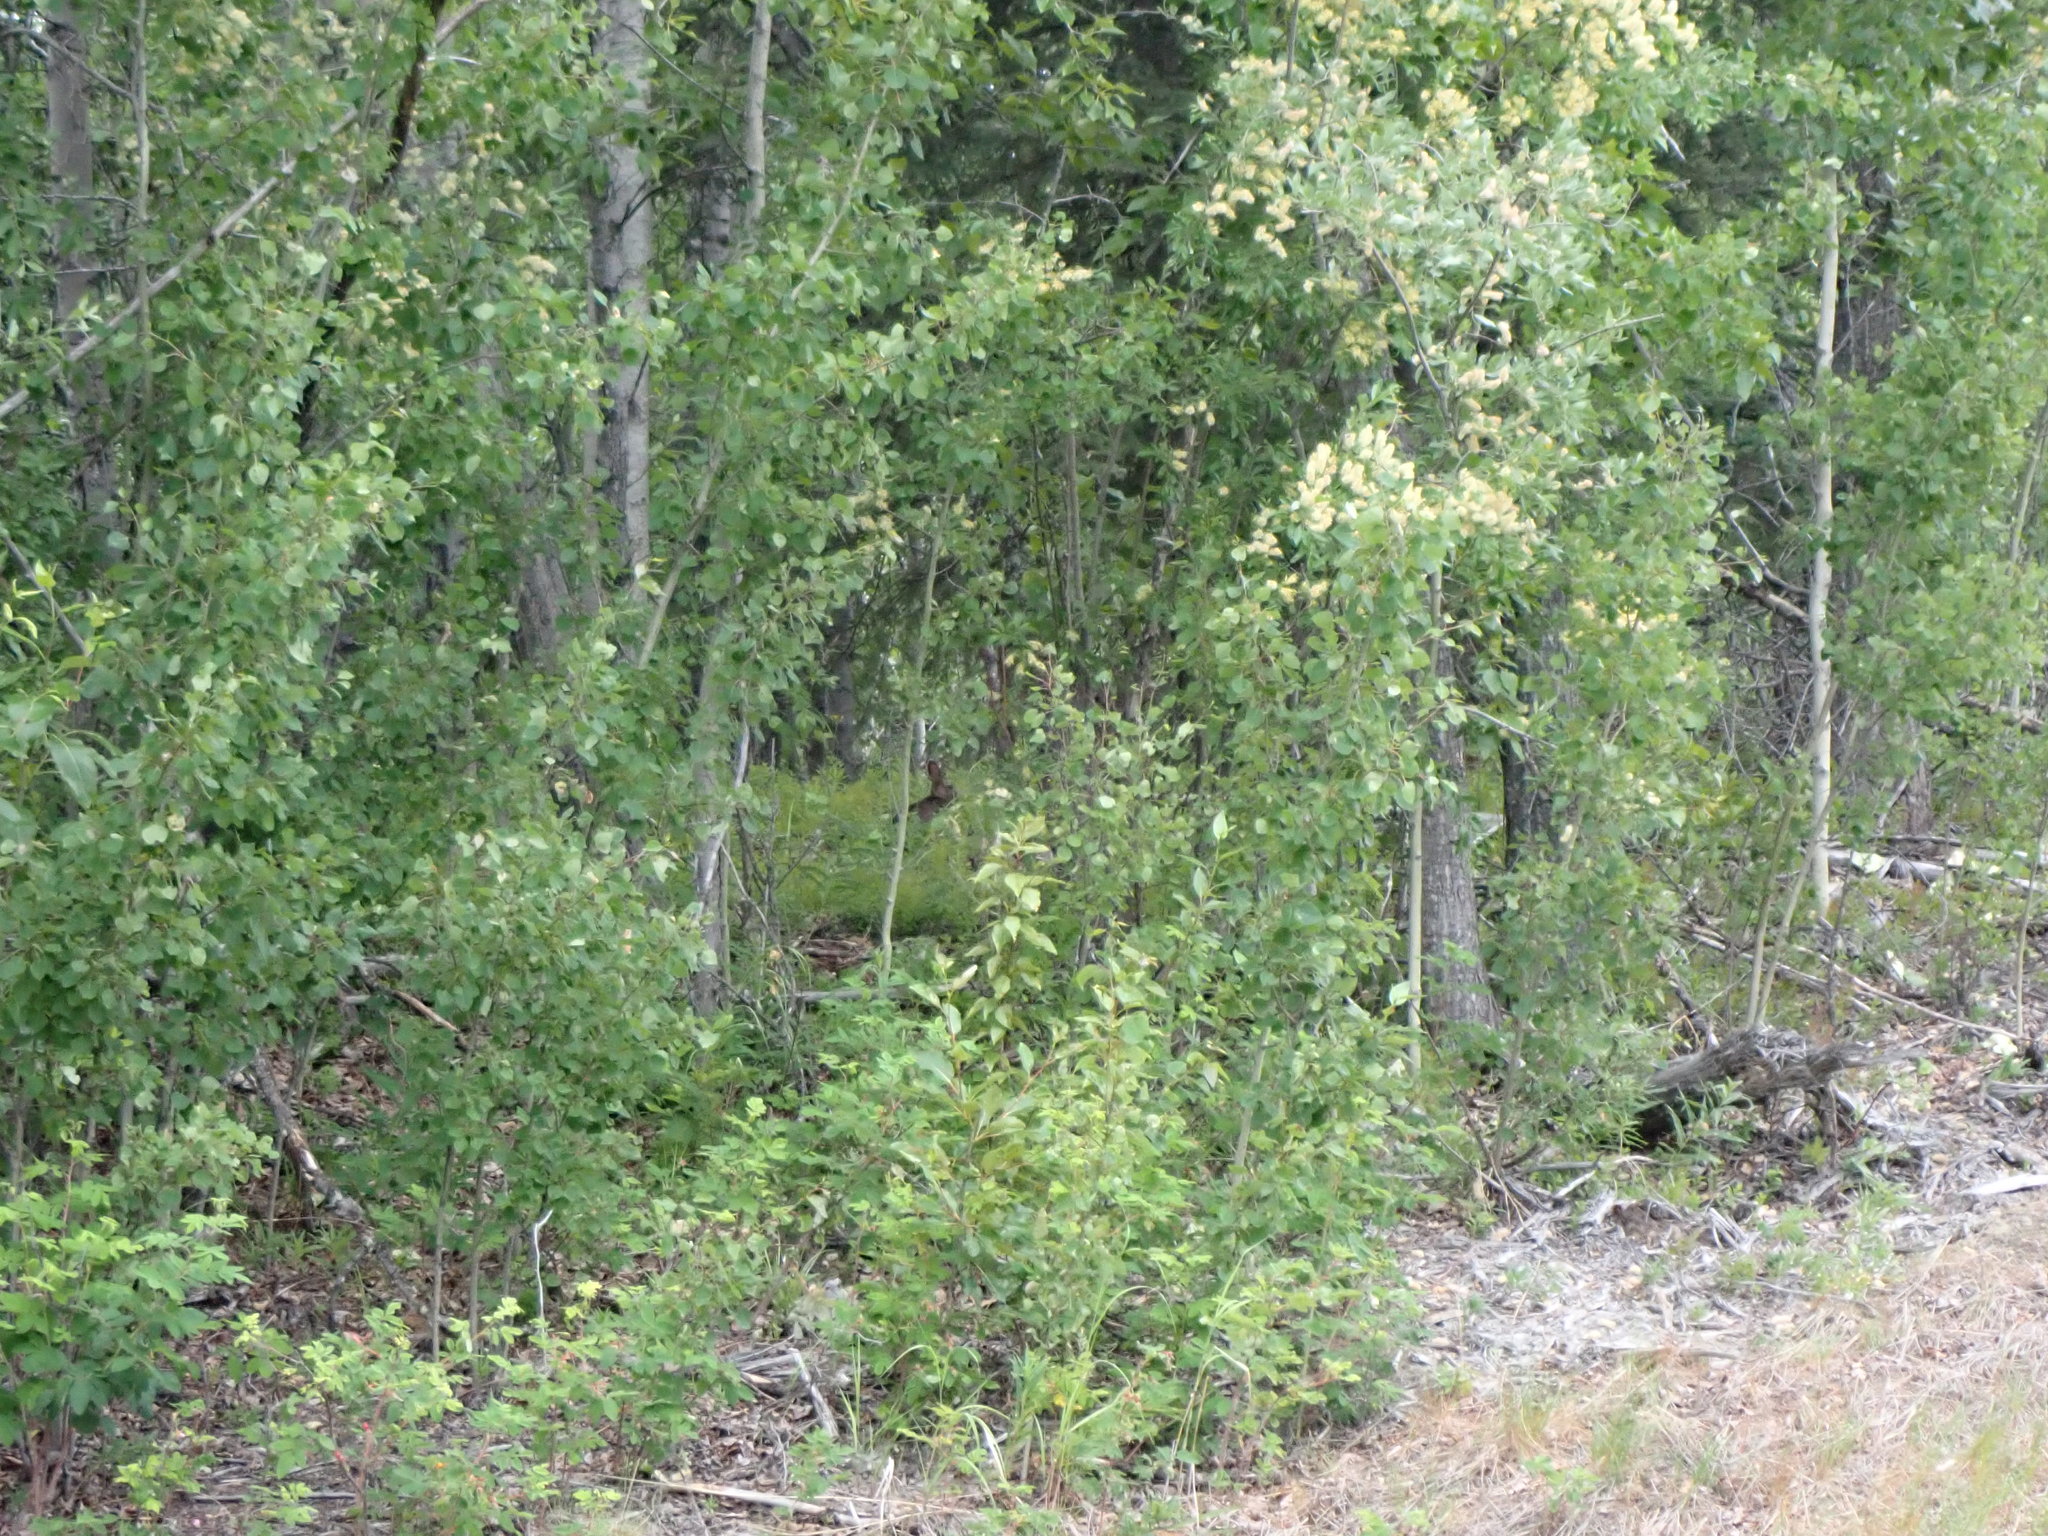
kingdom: Animalia
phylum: Chordata
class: Mammalia
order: Lagomorpha
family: Leporidae
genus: Lepus
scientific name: Lepus americanus
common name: Snowshoe hare
